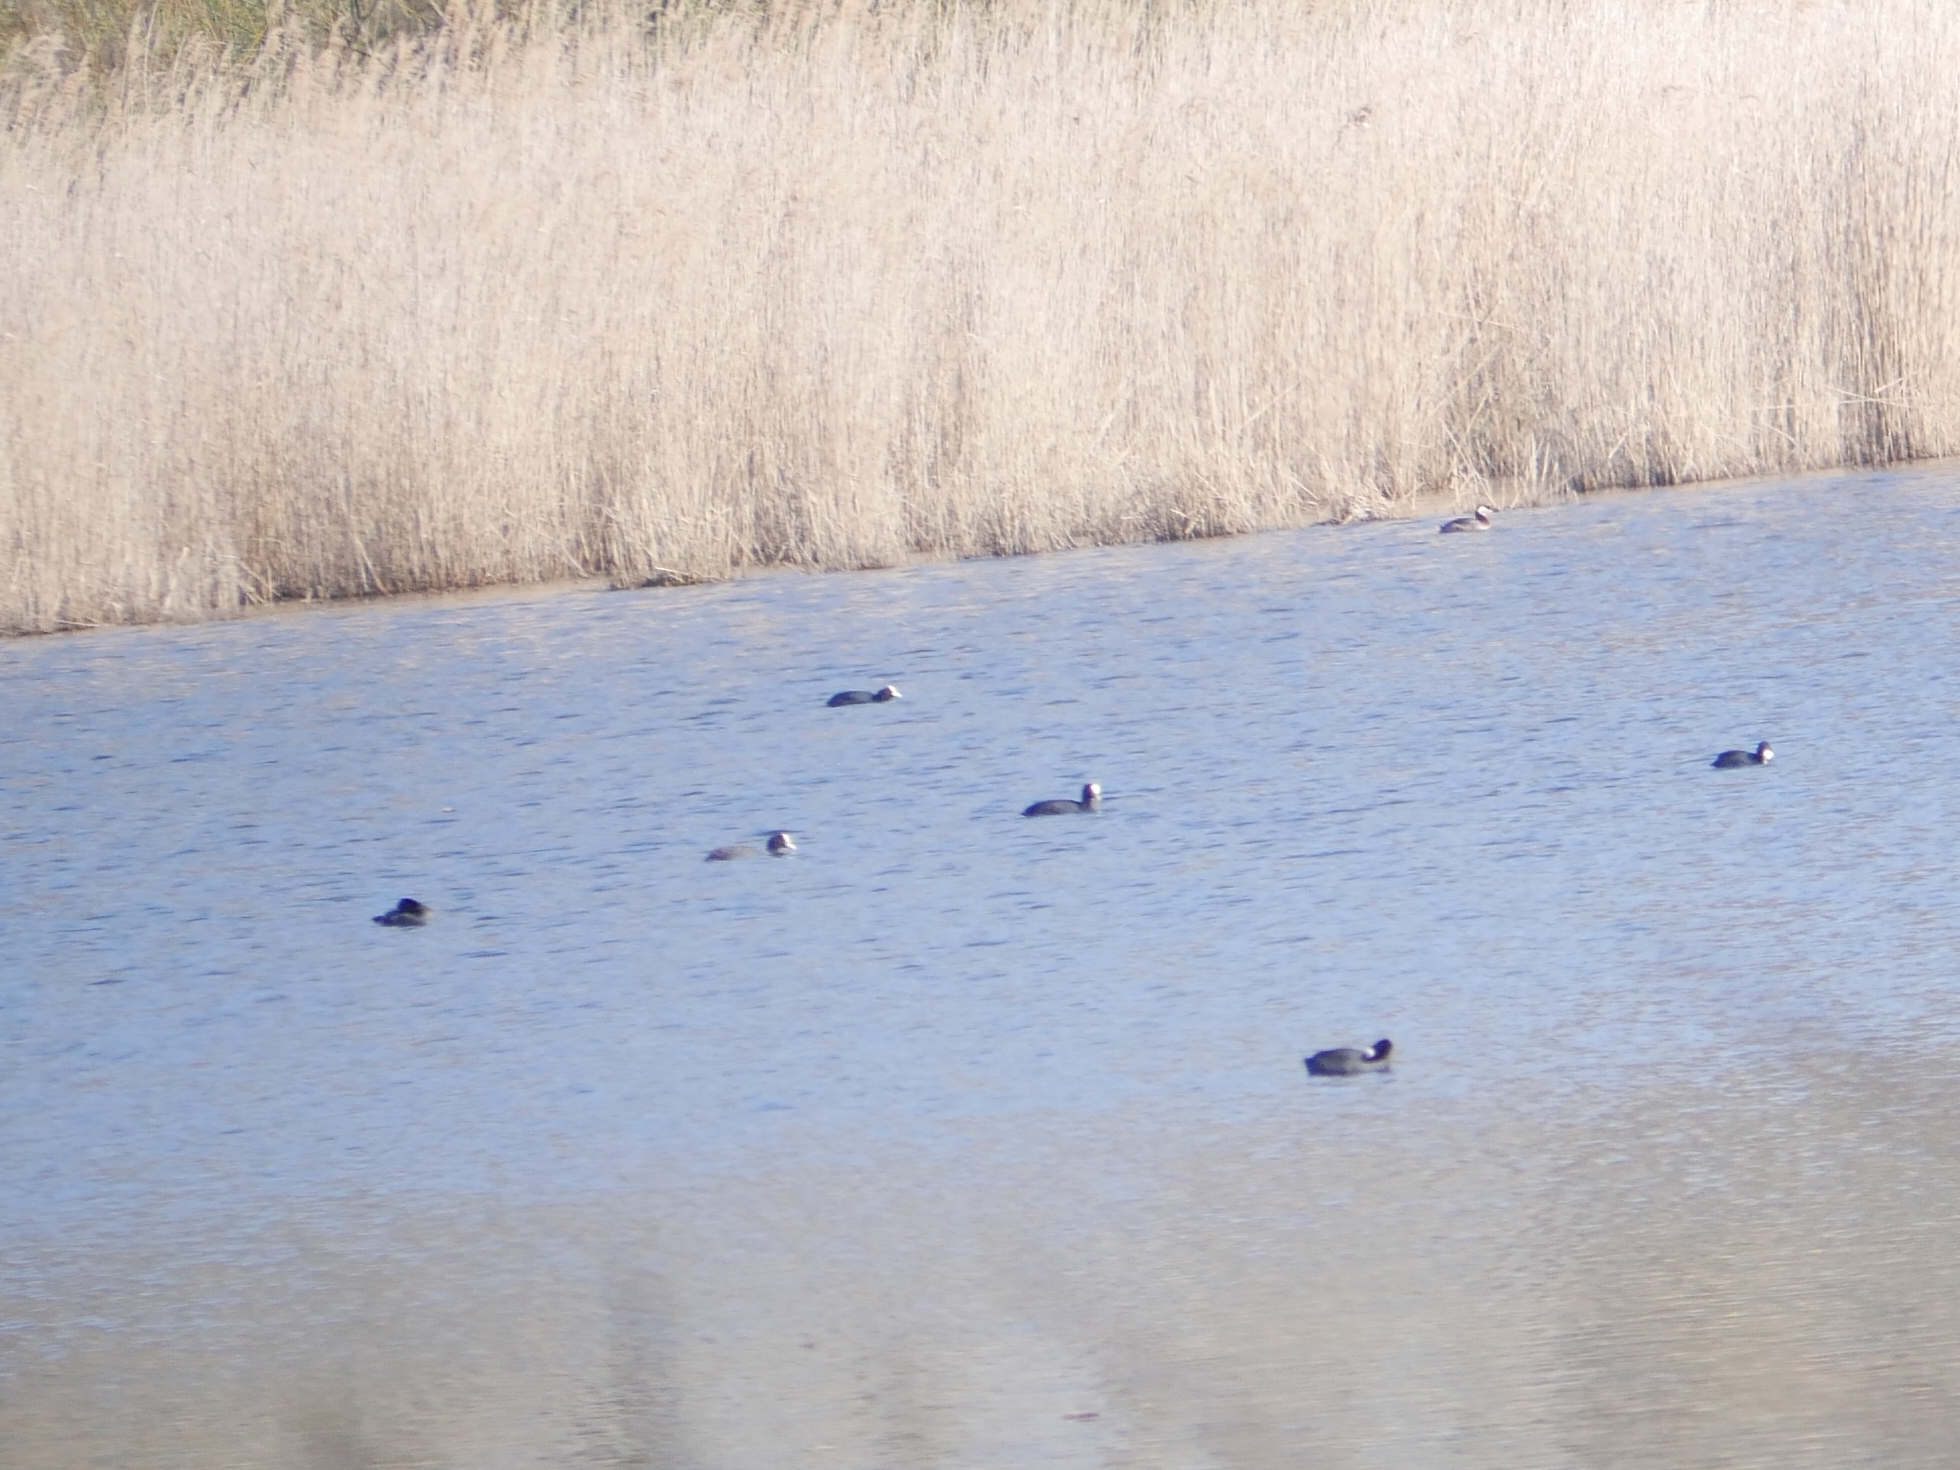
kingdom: Animalia
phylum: Chordata
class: Aves
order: Gruiformes
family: Rallidae
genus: Fulica
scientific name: Fulica atra
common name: Eurasian coot
